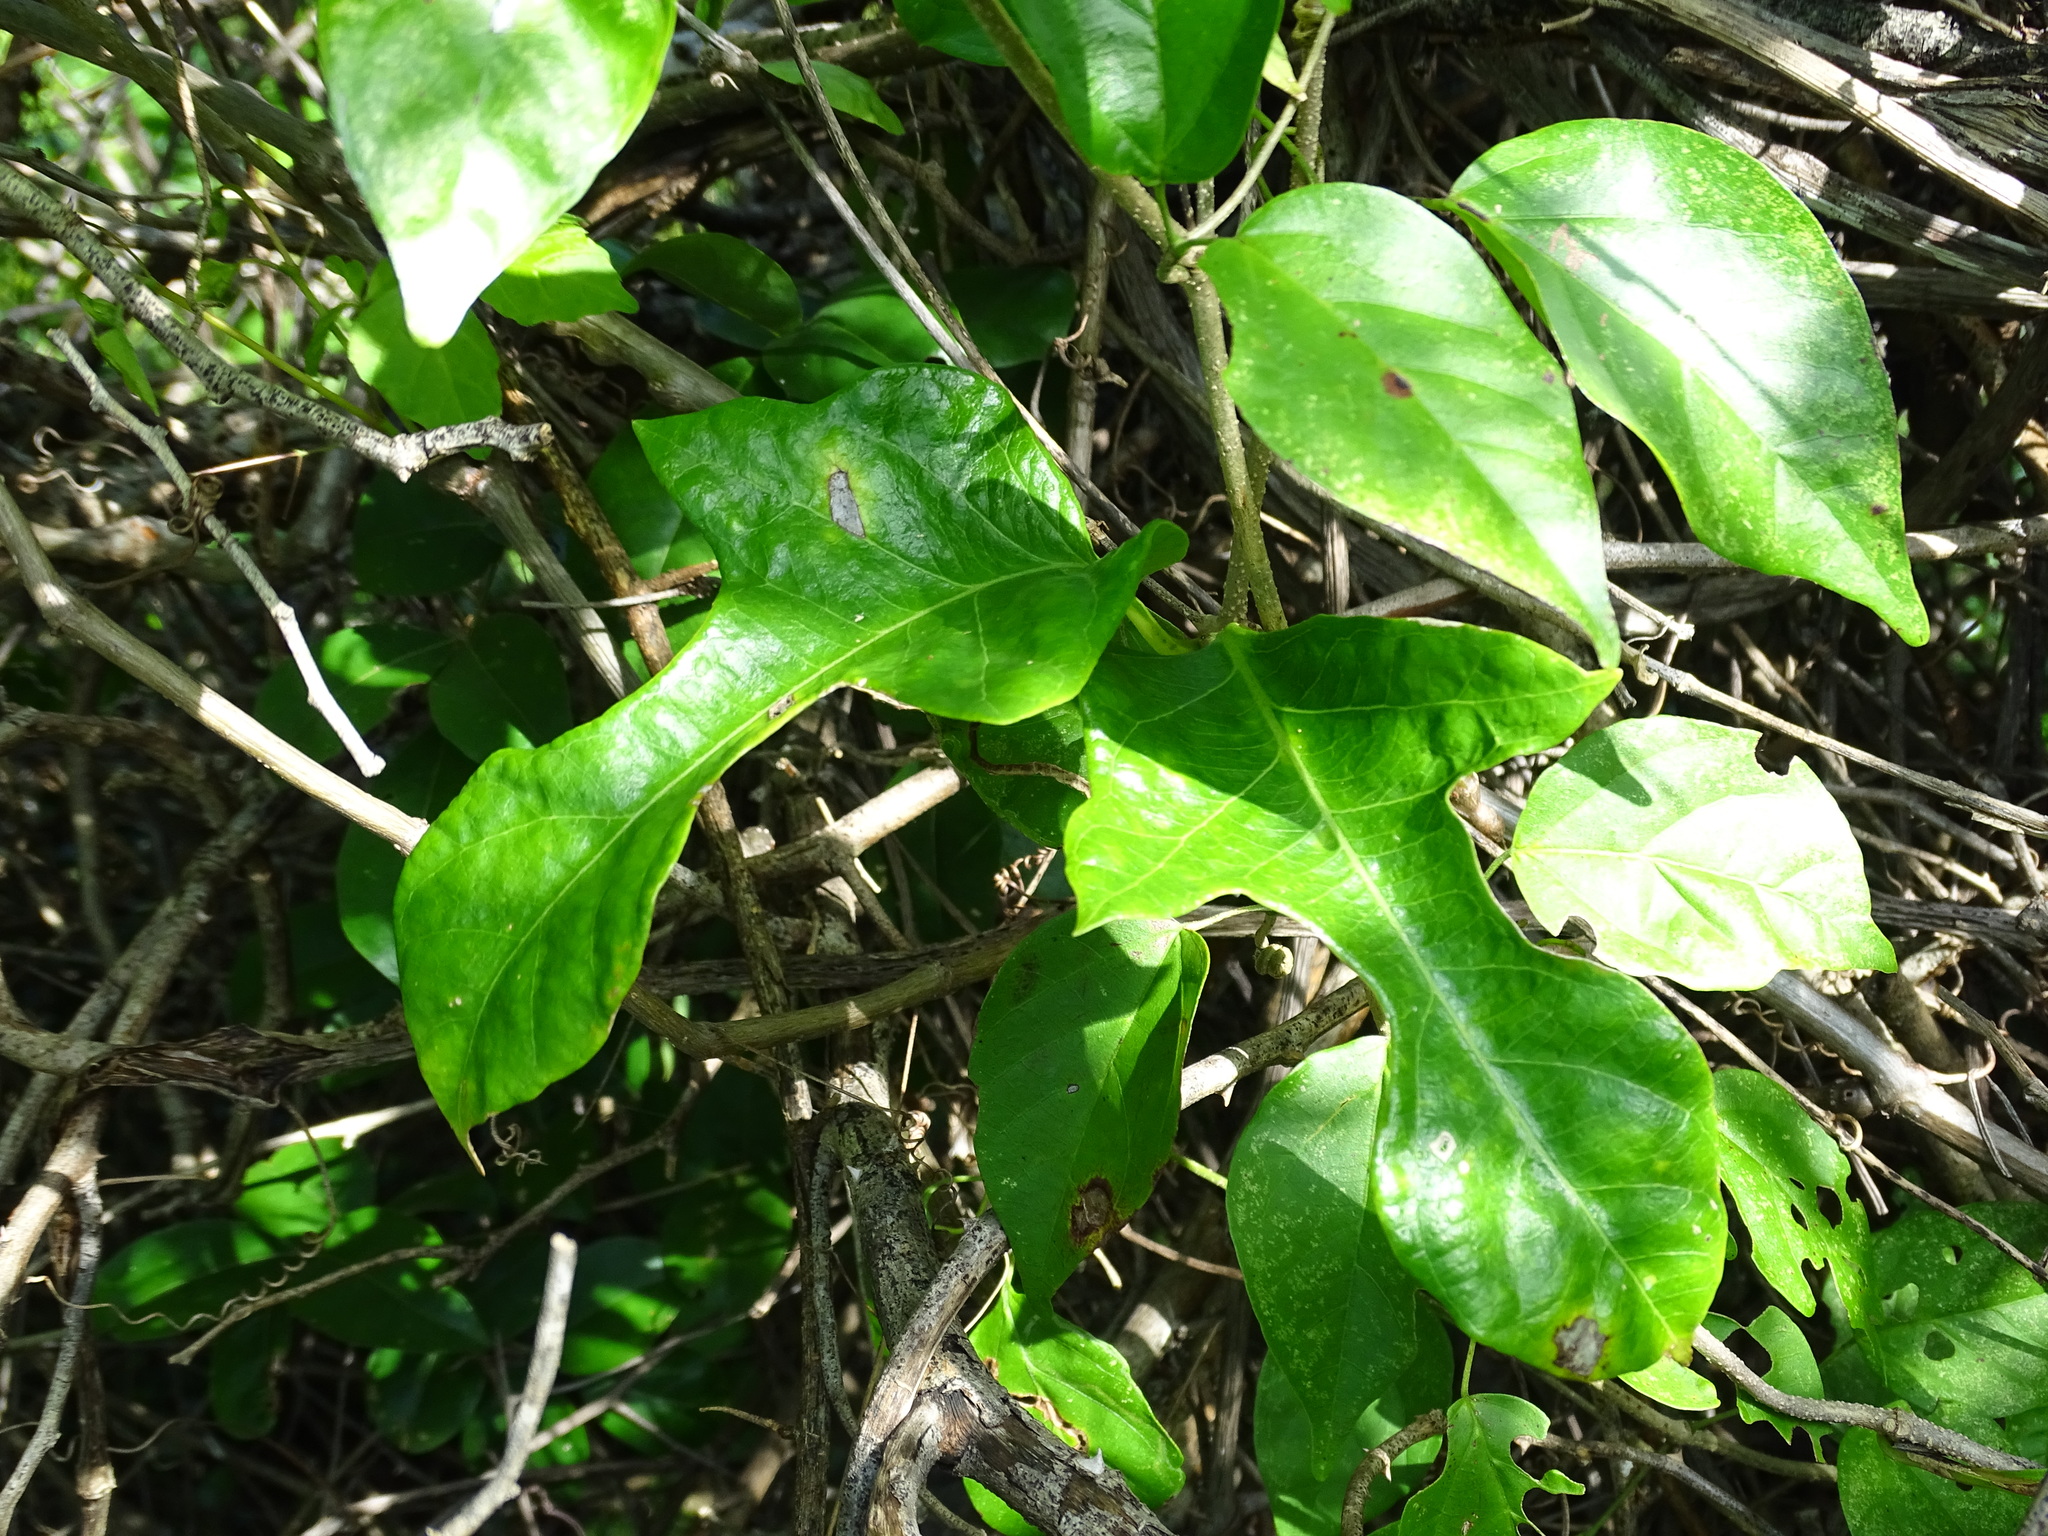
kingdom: Plantae
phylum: Tracheophyta
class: Magnoliopsida
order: Gentianales
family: Apocynaceae
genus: Echites
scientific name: Echites panduratus
